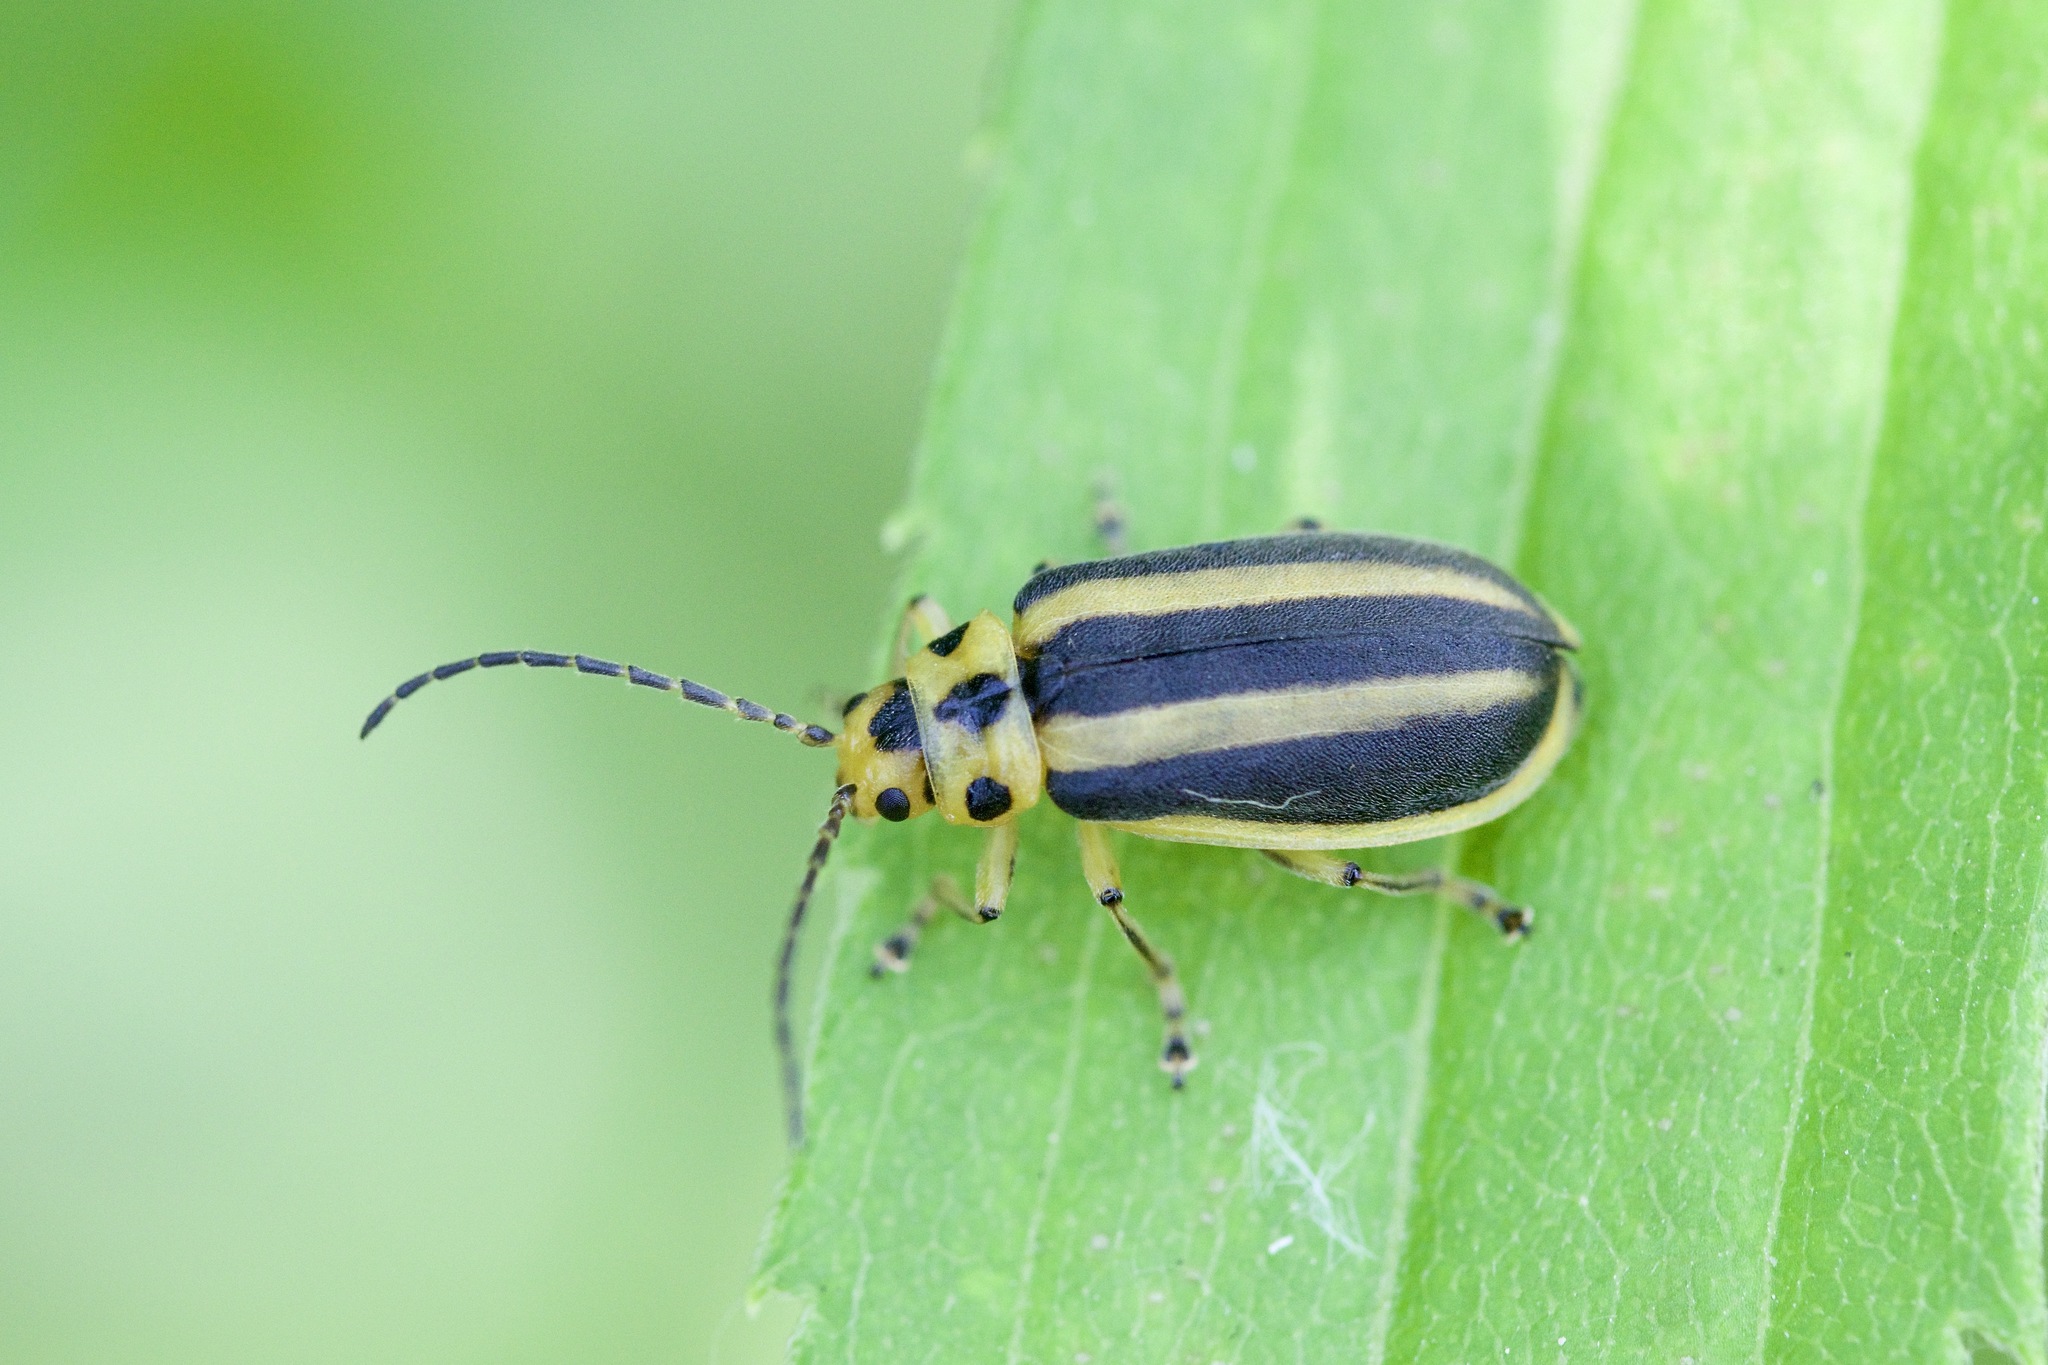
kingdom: Animalia
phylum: Arthropoda
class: Insecta
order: Coleoptera
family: Chrysomelidae
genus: Trirhabda
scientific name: Trirhabda canadensis
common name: Goldenrod leaf beetle
